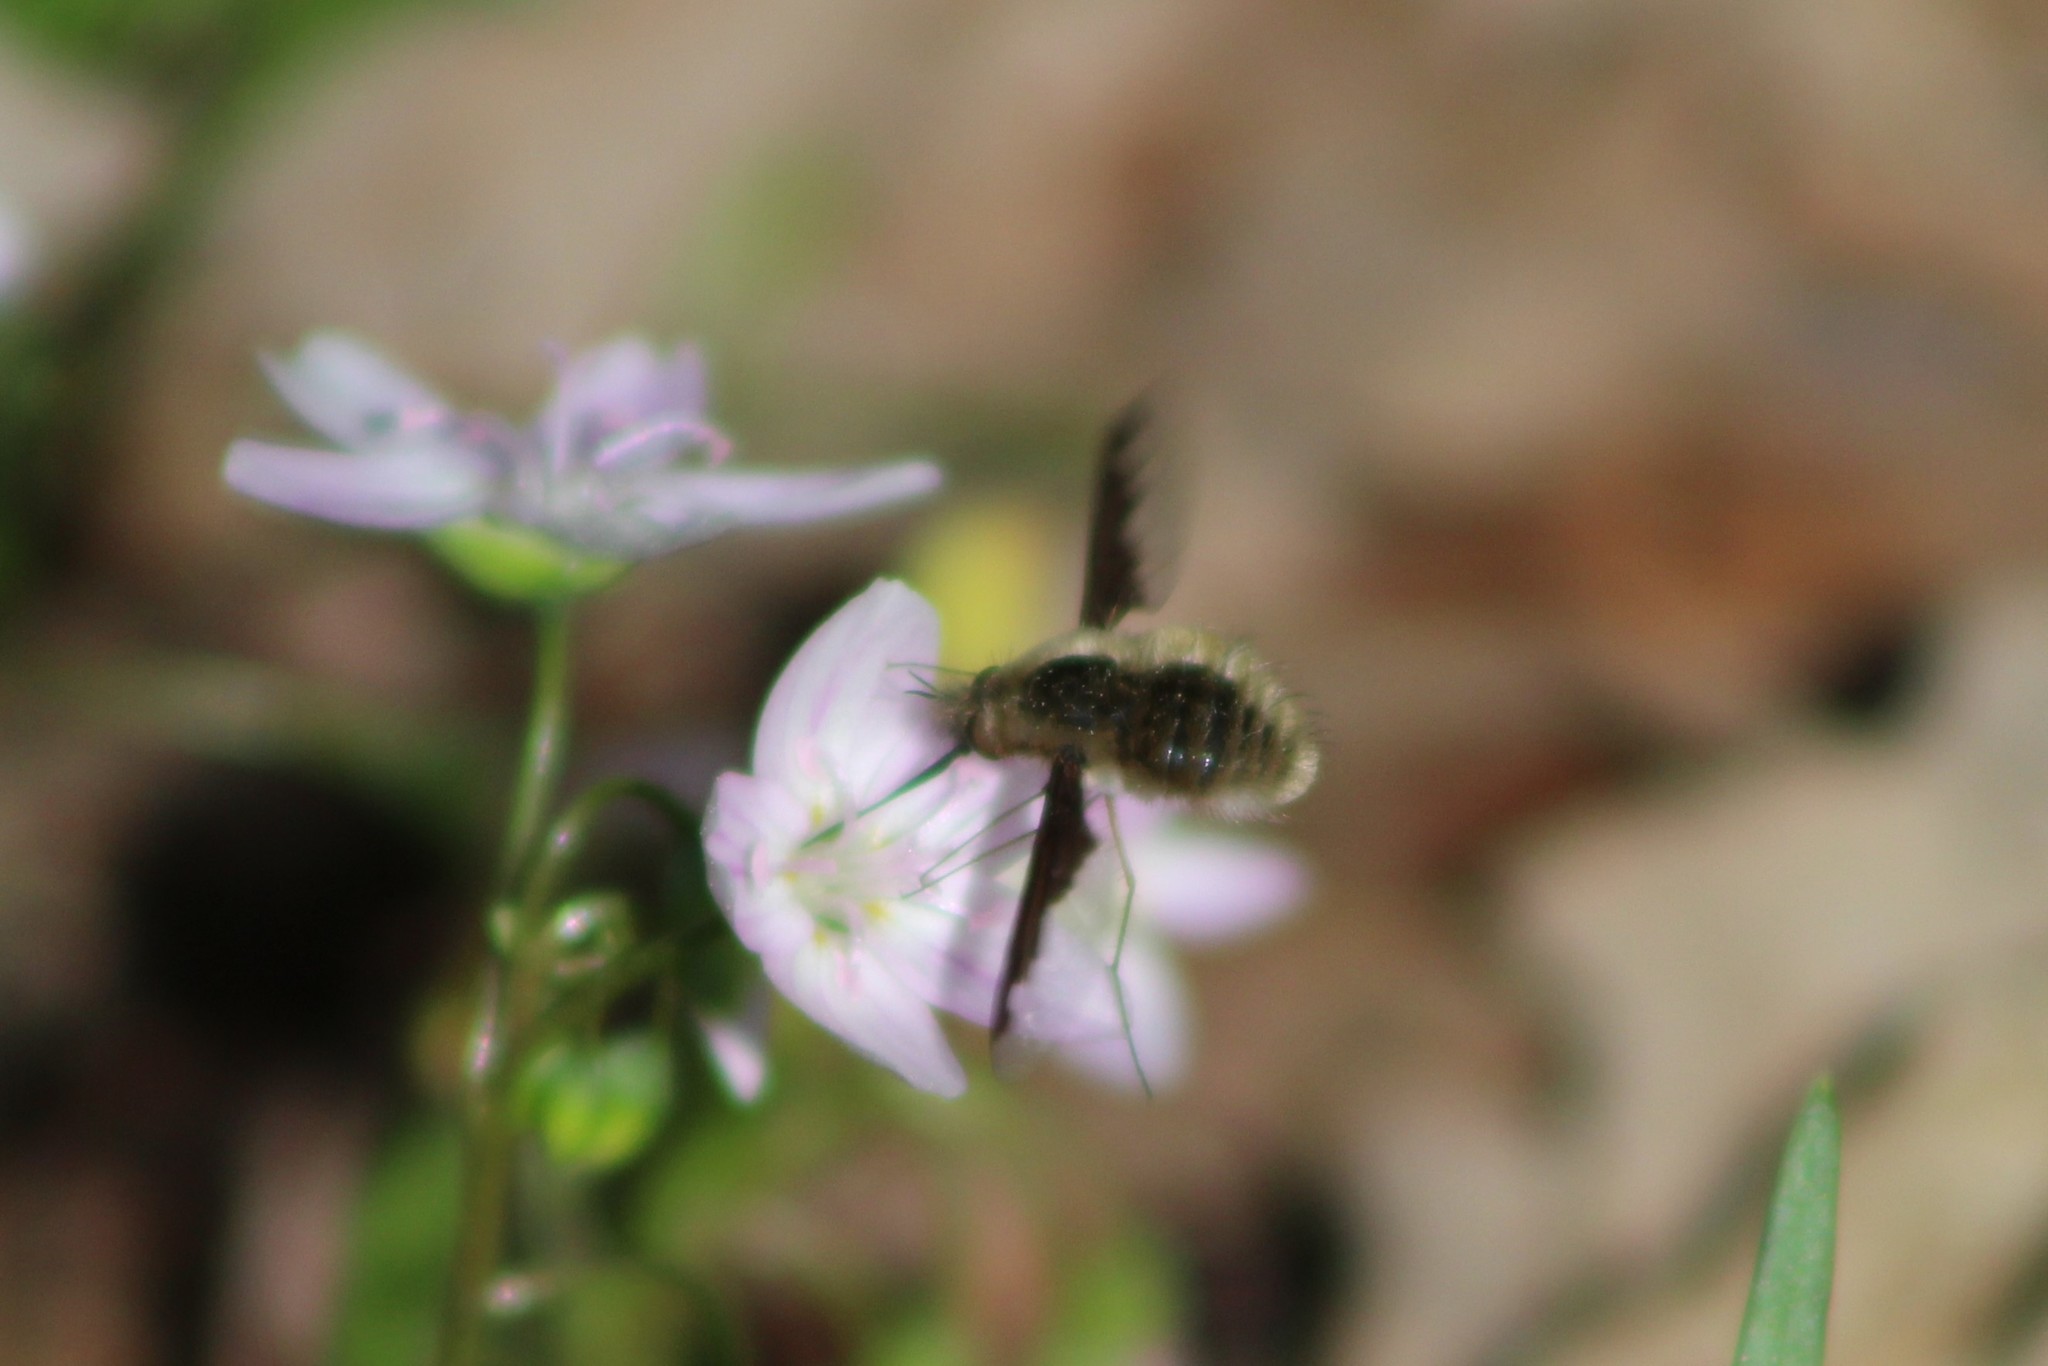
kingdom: Animalia
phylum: Arthropoda
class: Insecta
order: Diptera
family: Bombyliidae
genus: Bombylius
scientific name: Bombylius major
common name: Bee fly
